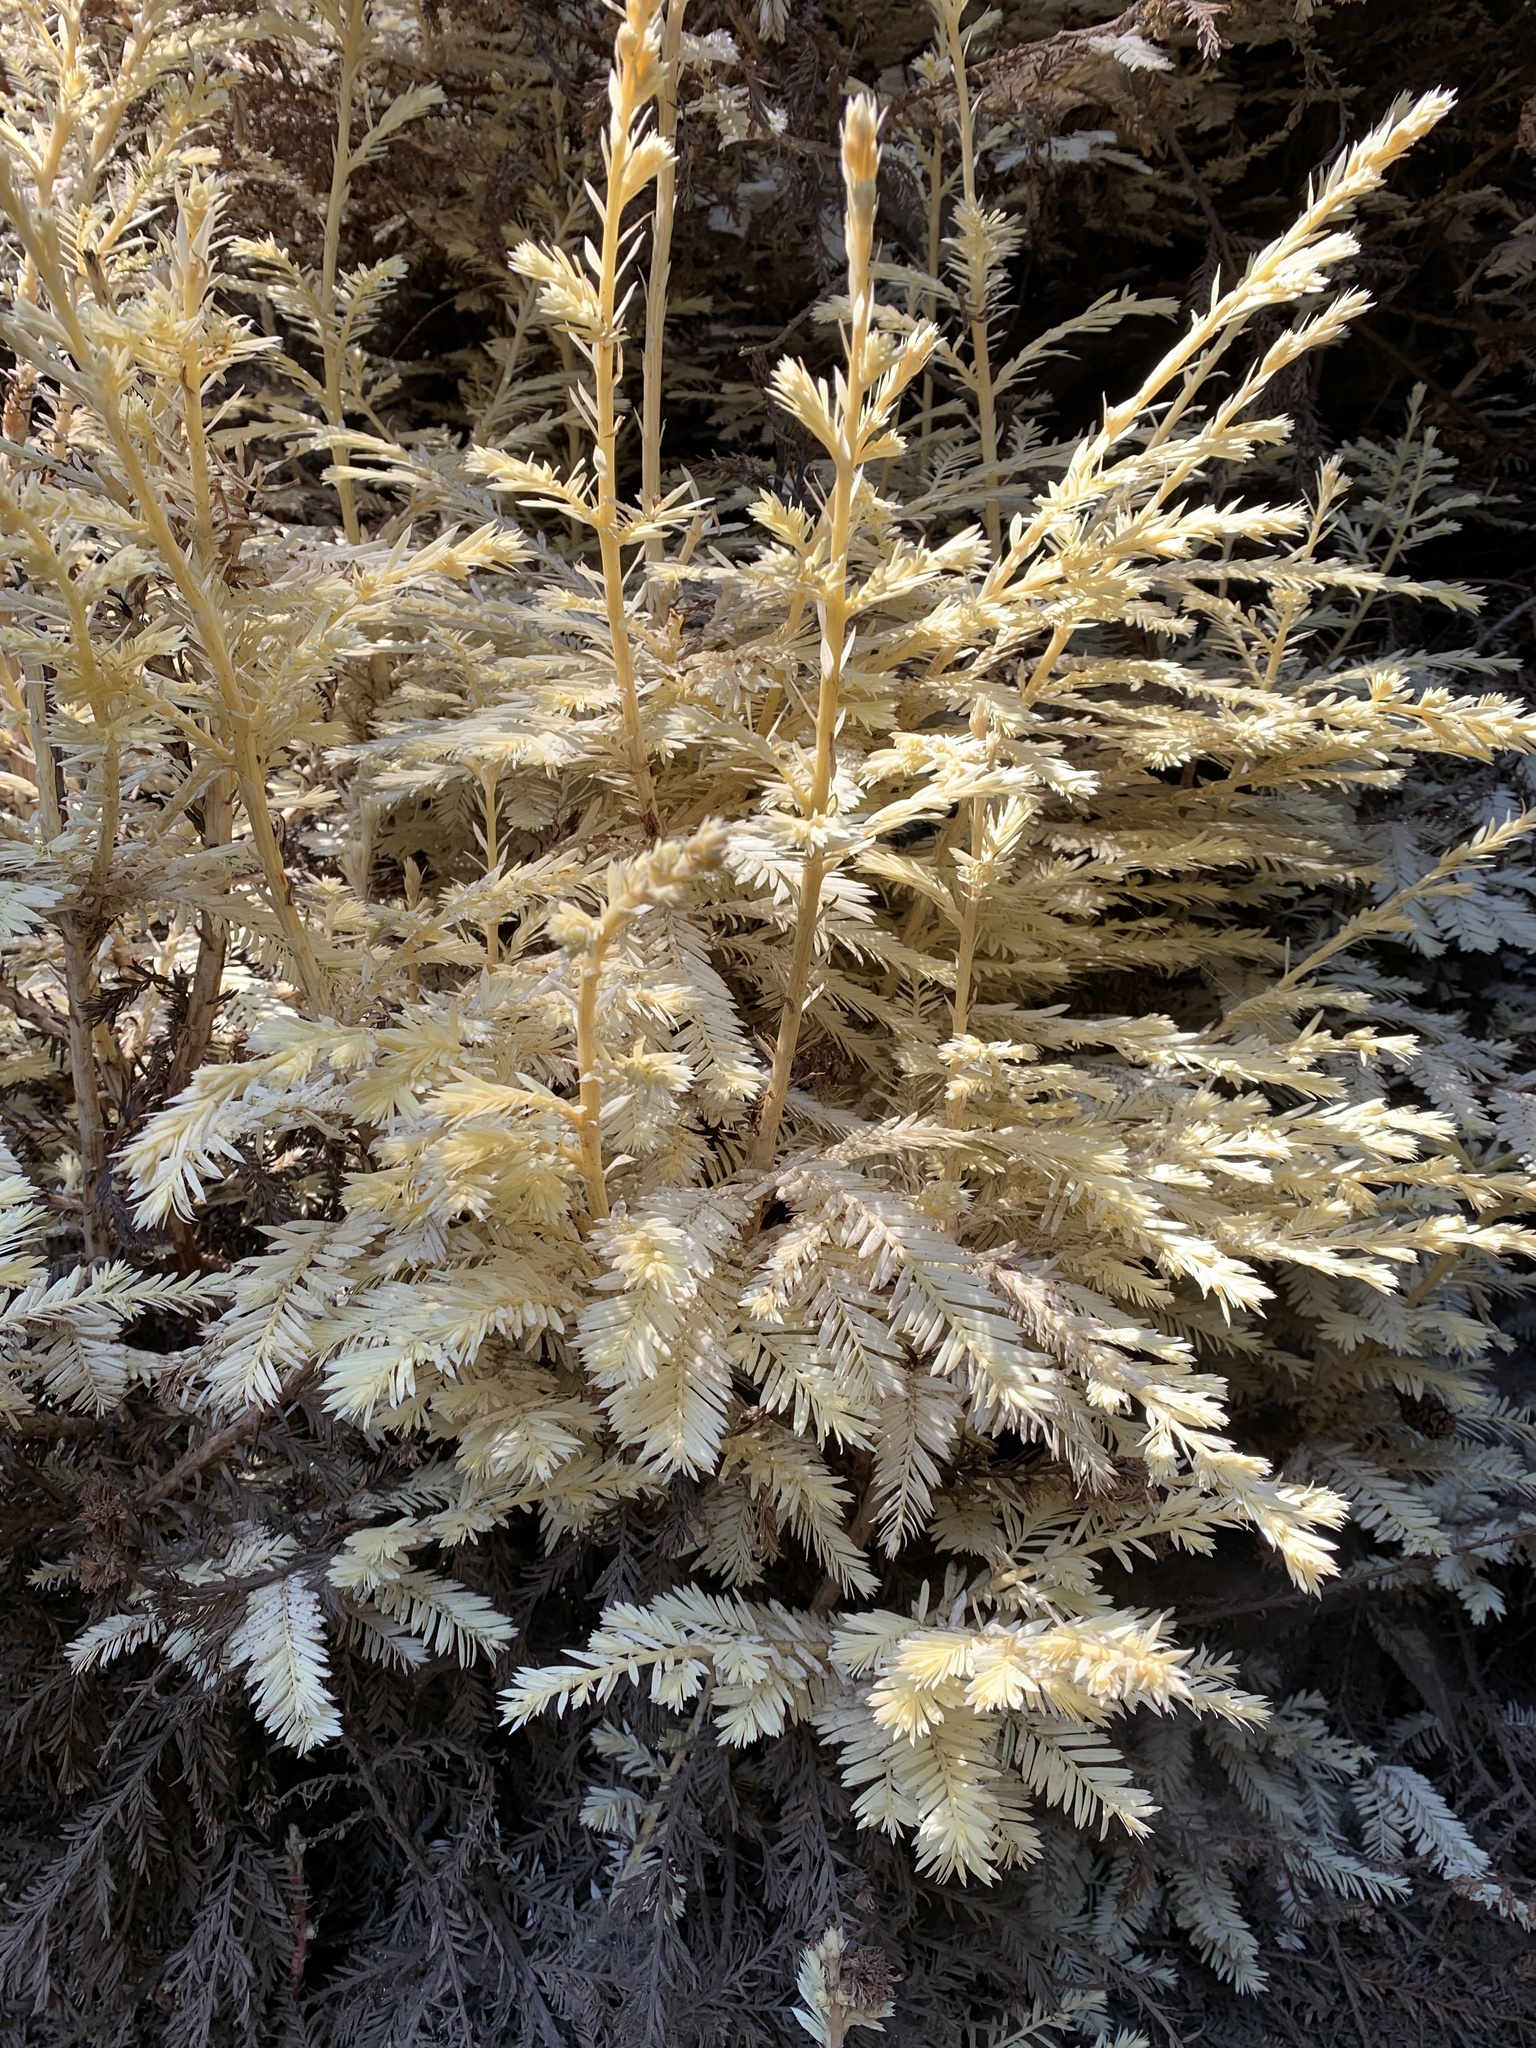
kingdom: Plantae
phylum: Tracheophyta
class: Pinopsida
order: Pinales
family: Cupressaceae
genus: Sequoia
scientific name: Sequoia sempervirens
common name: Coast redwood
